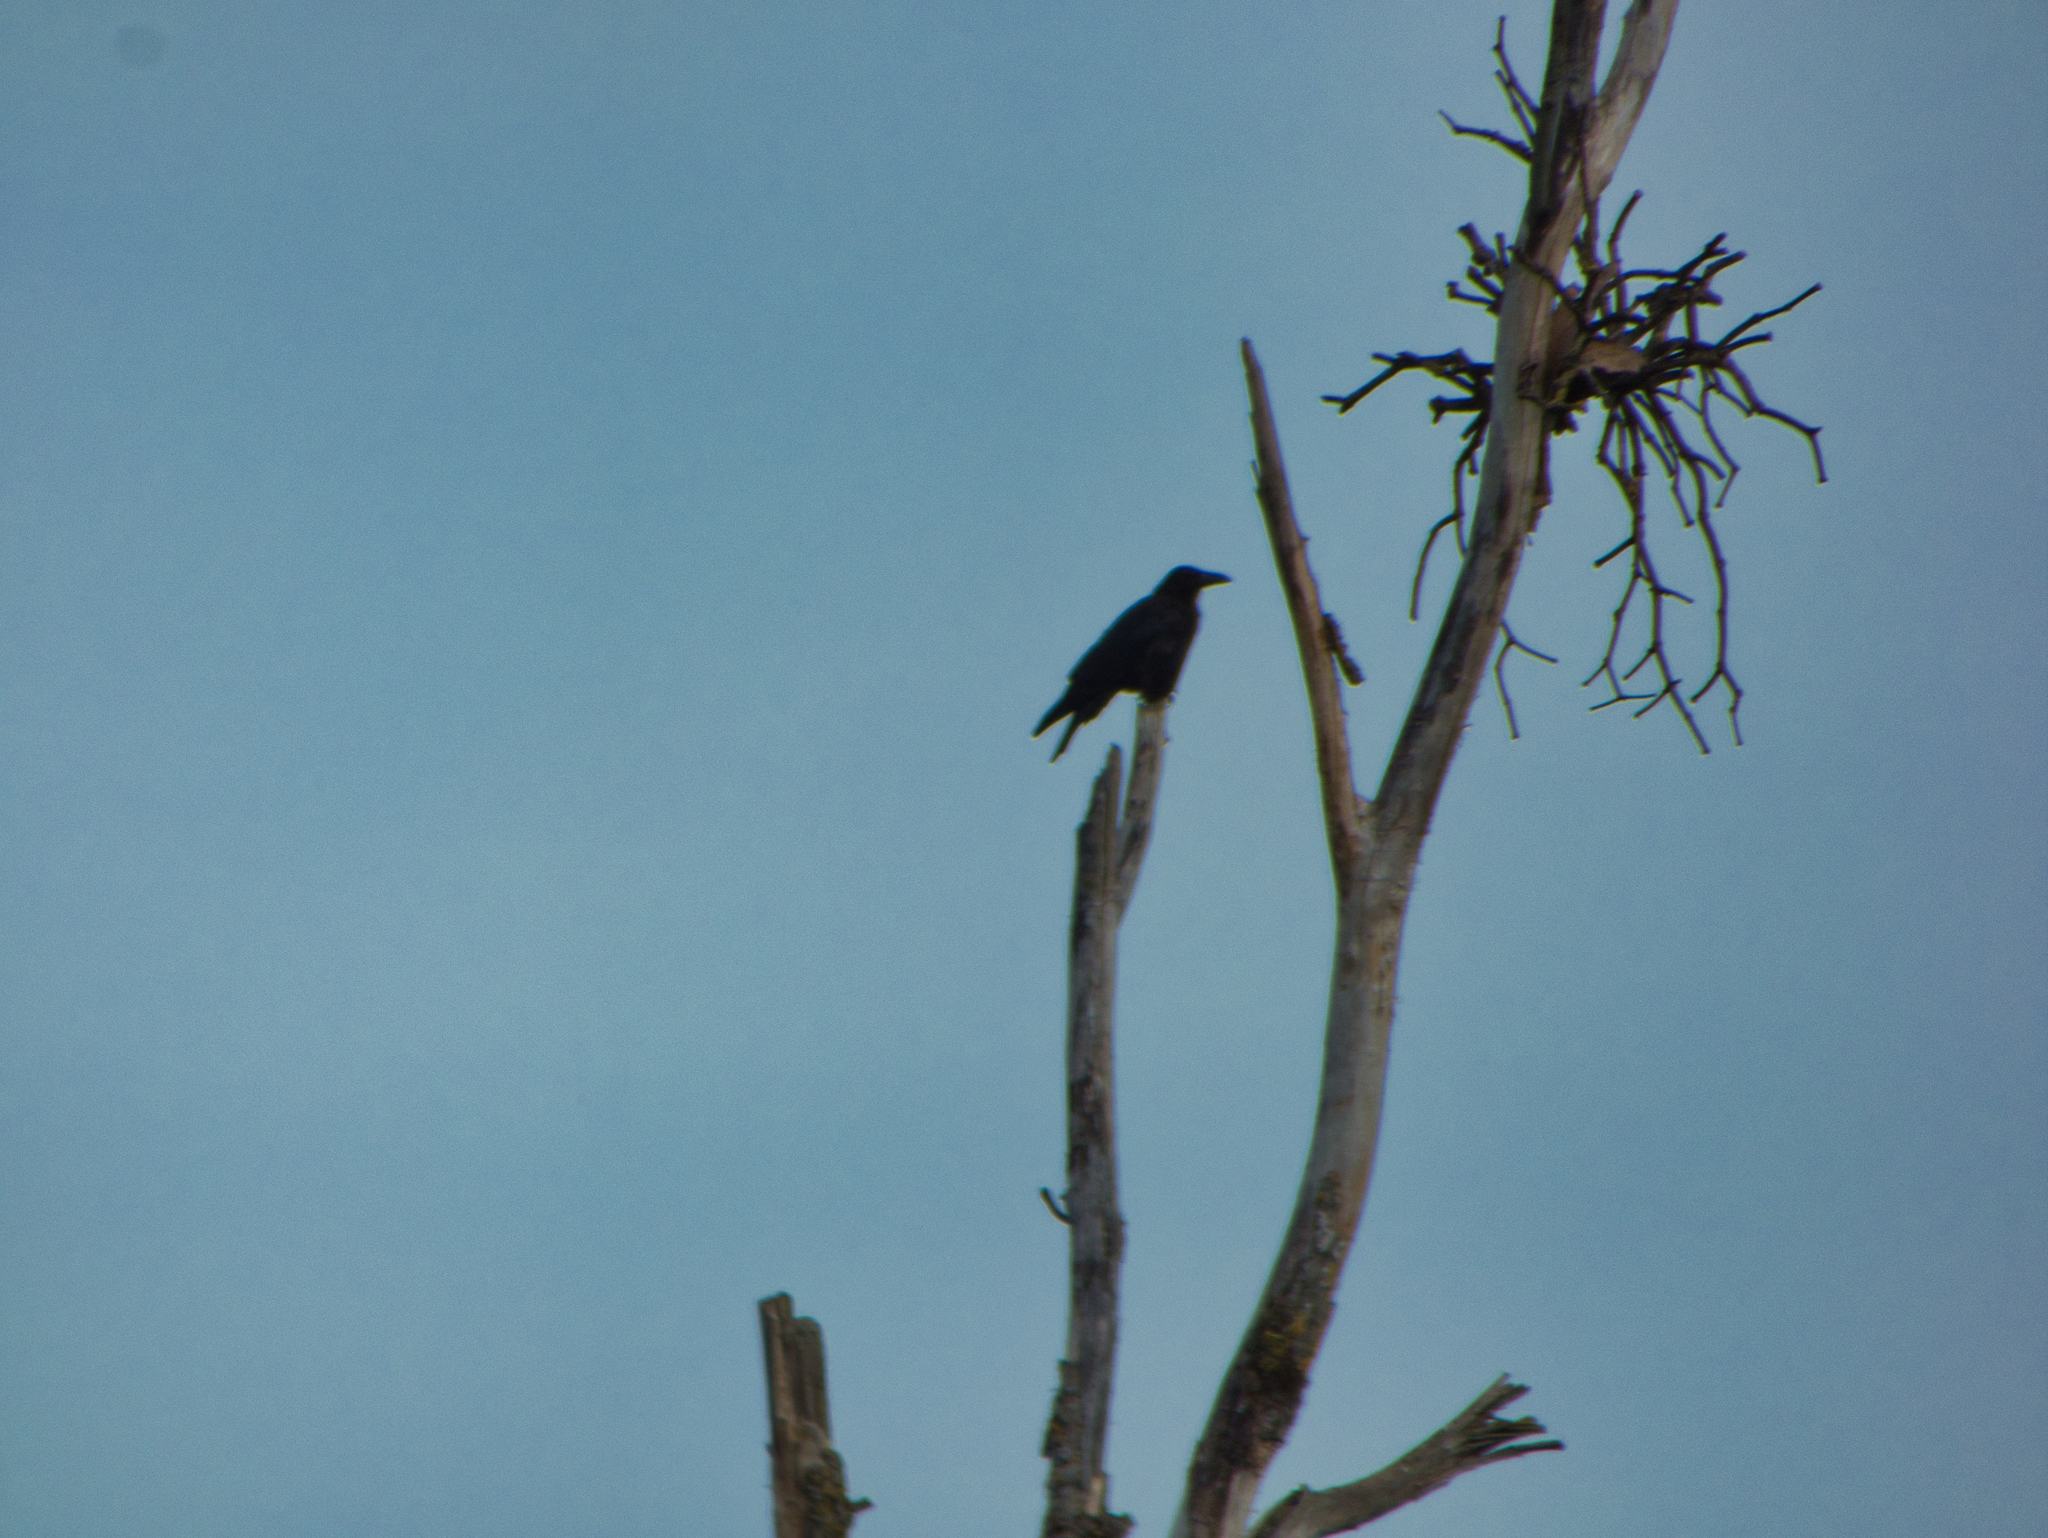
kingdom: Animalia
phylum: Chordata
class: Aves
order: Passeriformes
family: Corvidae
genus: Corvus
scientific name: Corvus corone
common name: Carrion crow
